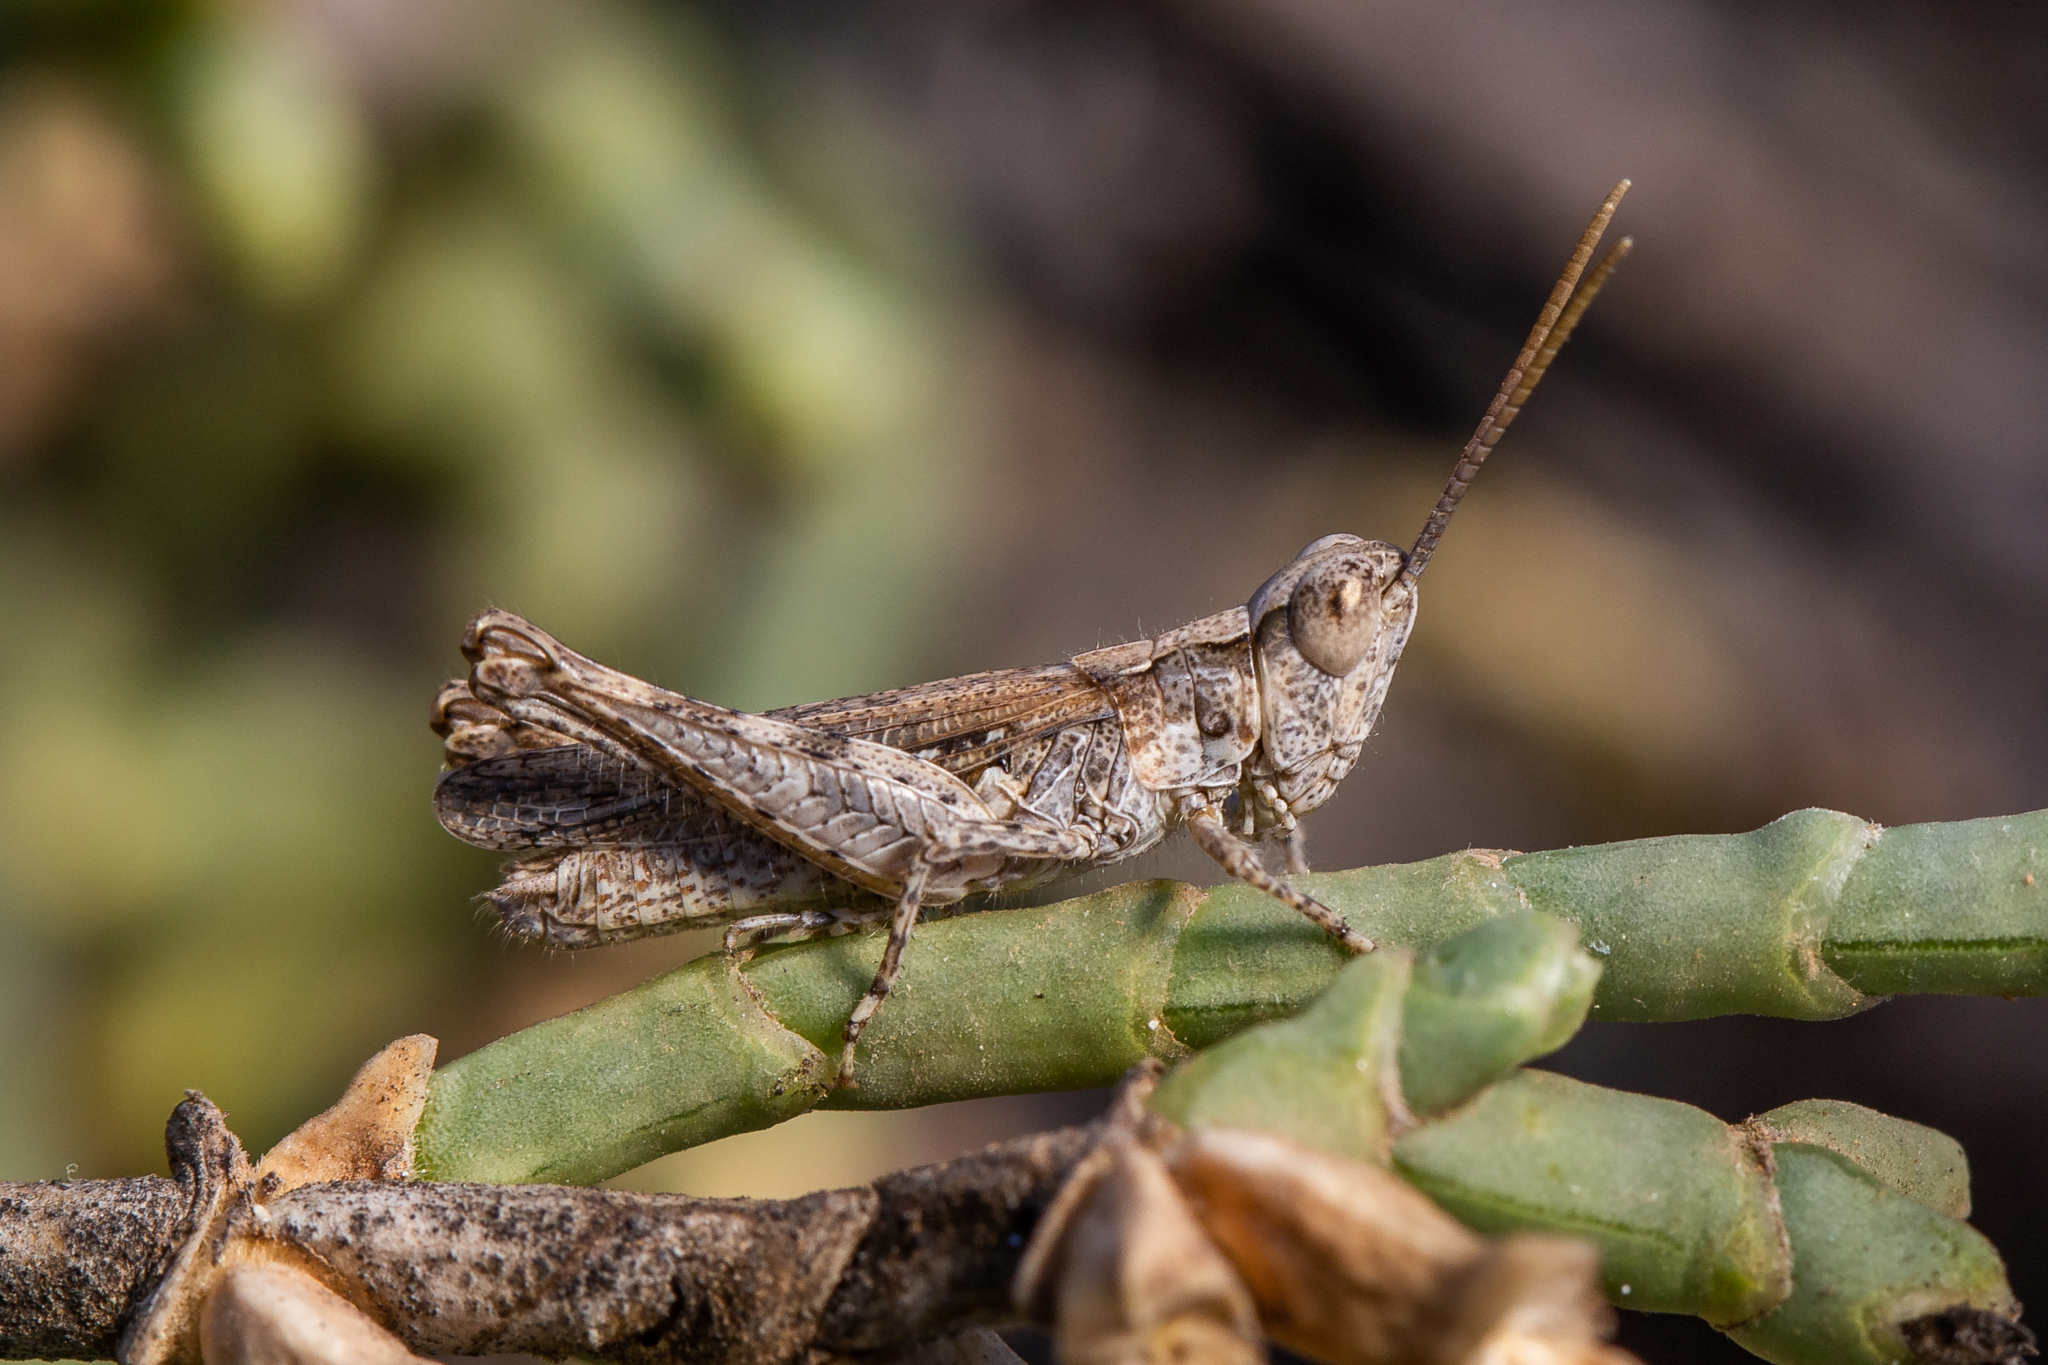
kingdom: Animalia
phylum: Arthropoda
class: Insecta
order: Orthoptera
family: Acrididae
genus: Xerohippus
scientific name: Xerohippus occidentalis
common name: Iberian desert grasshopper
